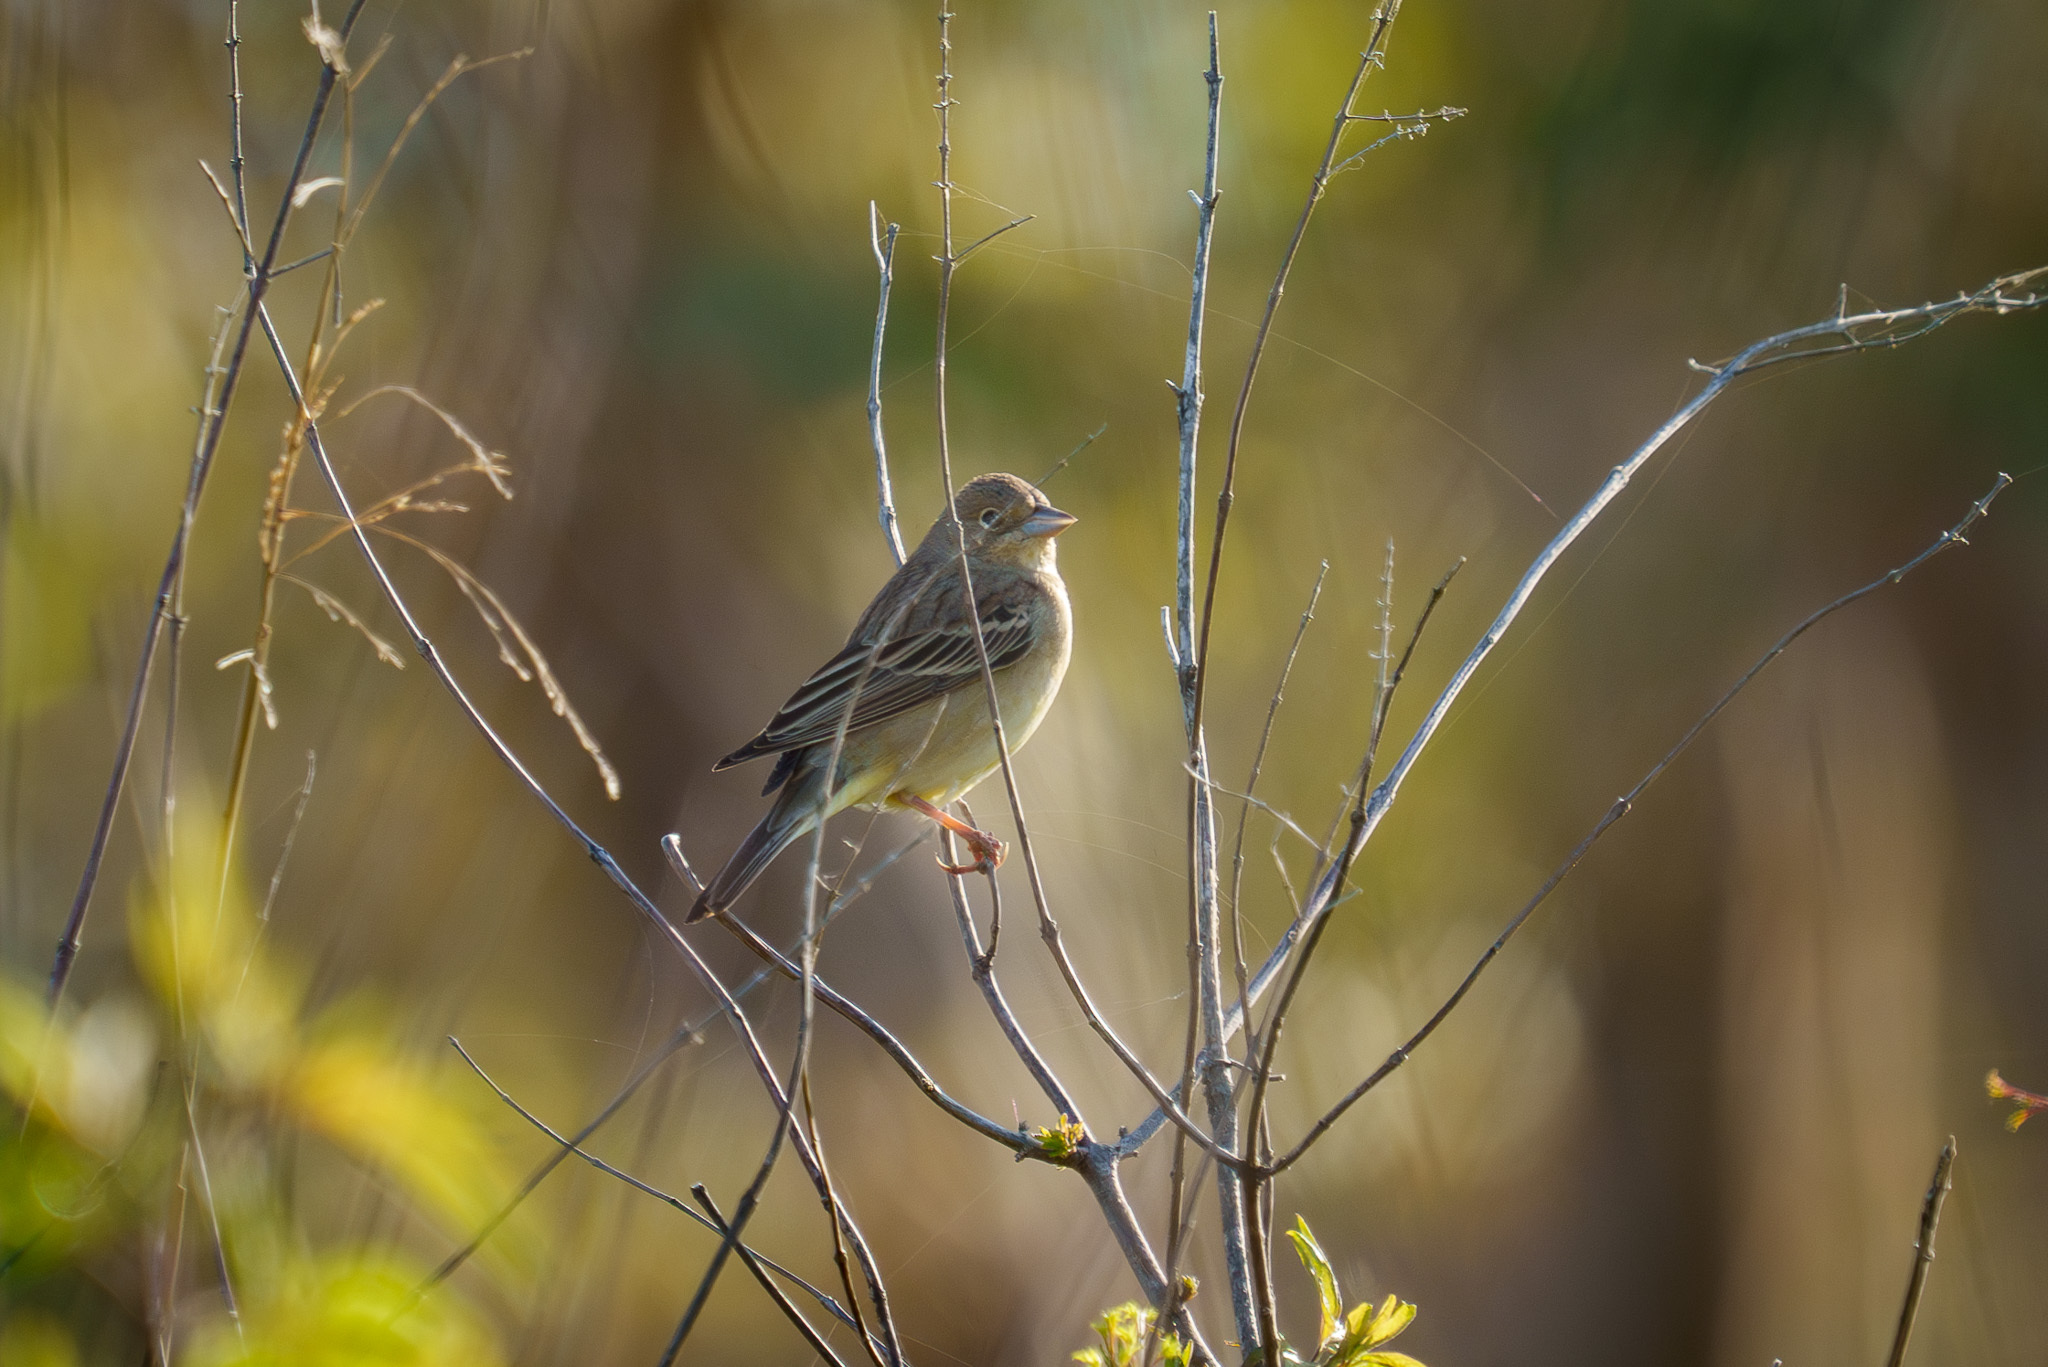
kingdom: Animalia
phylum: Chordata
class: Aves
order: Passeriformes
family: Emberizidae
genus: Emberiza
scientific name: Emberiza melanocephala
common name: Black-headed bunting
